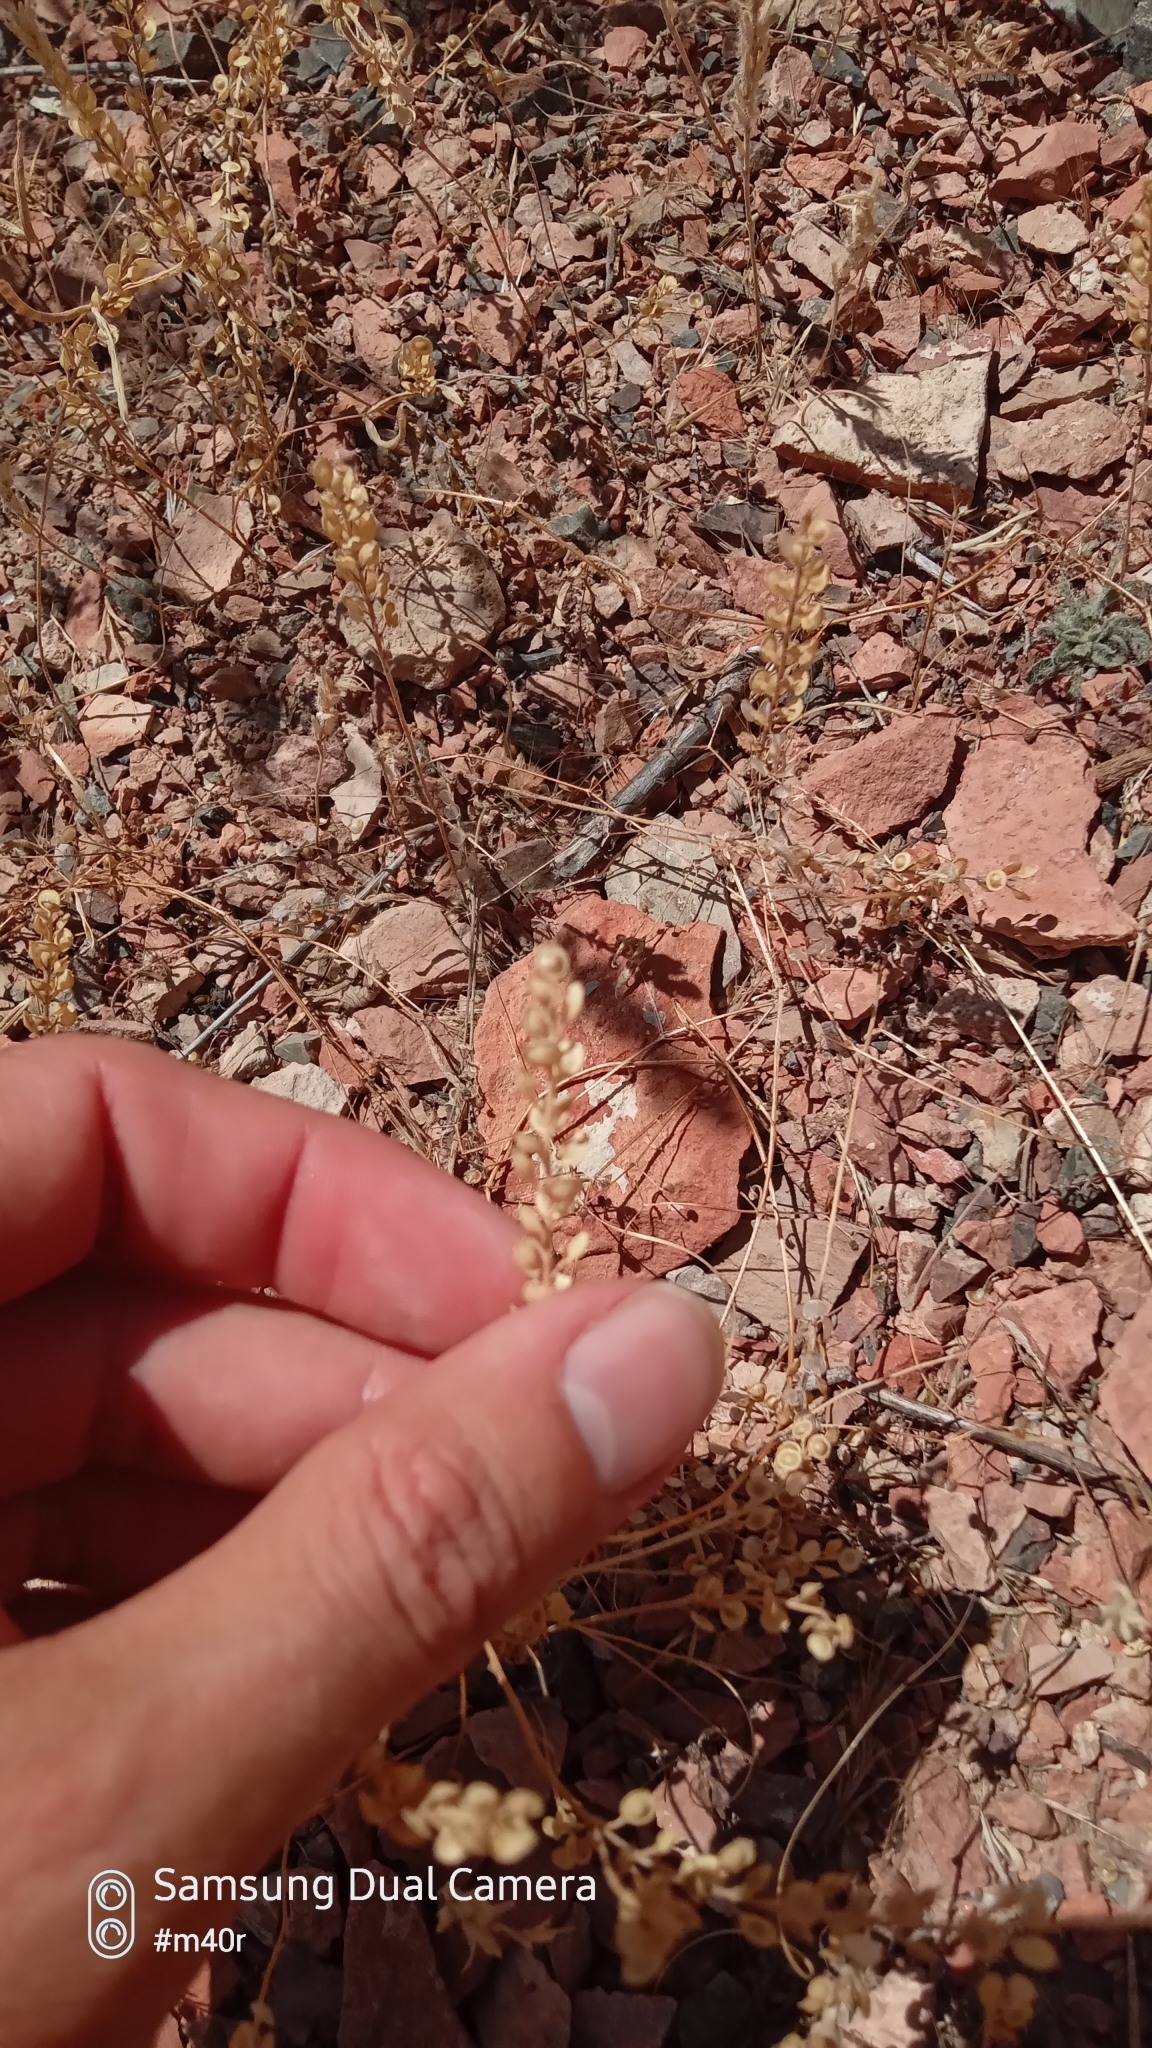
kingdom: Plantae
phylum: Tracheophyta
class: Magnoliopsida
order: Brassicales
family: Brassicaceae
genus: Alyssum
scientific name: Alyssum turkestanicum
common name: Desert alyssum
